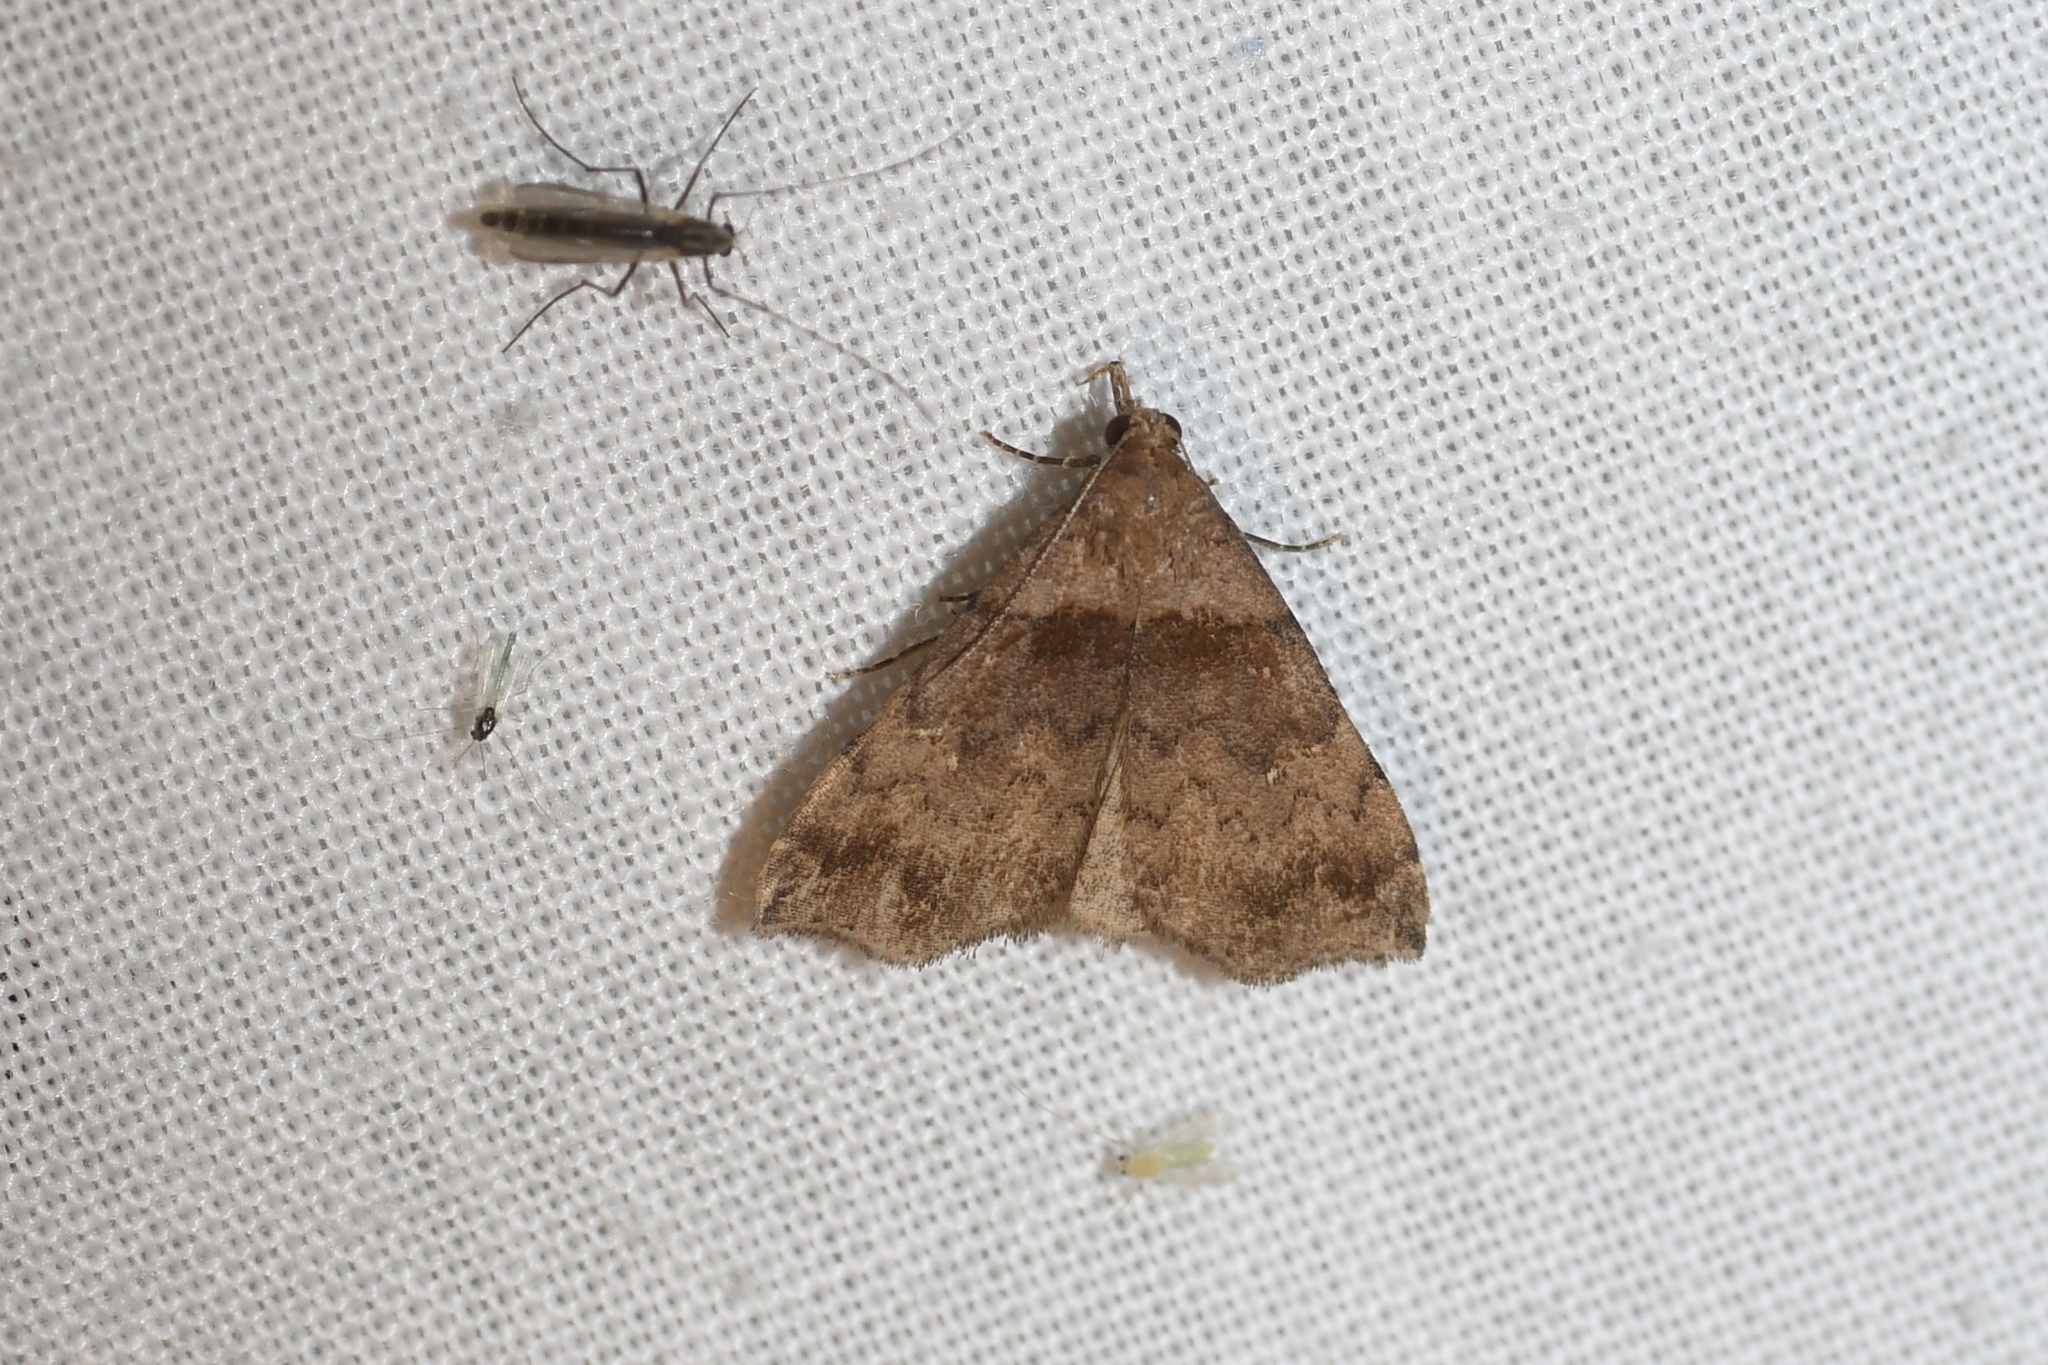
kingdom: Animalia
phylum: Arthropoda
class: Insecta
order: Lepidoptera
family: Erebidae
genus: Lascoria
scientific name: Lascoria ambigualis
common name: Ambiguous moth
